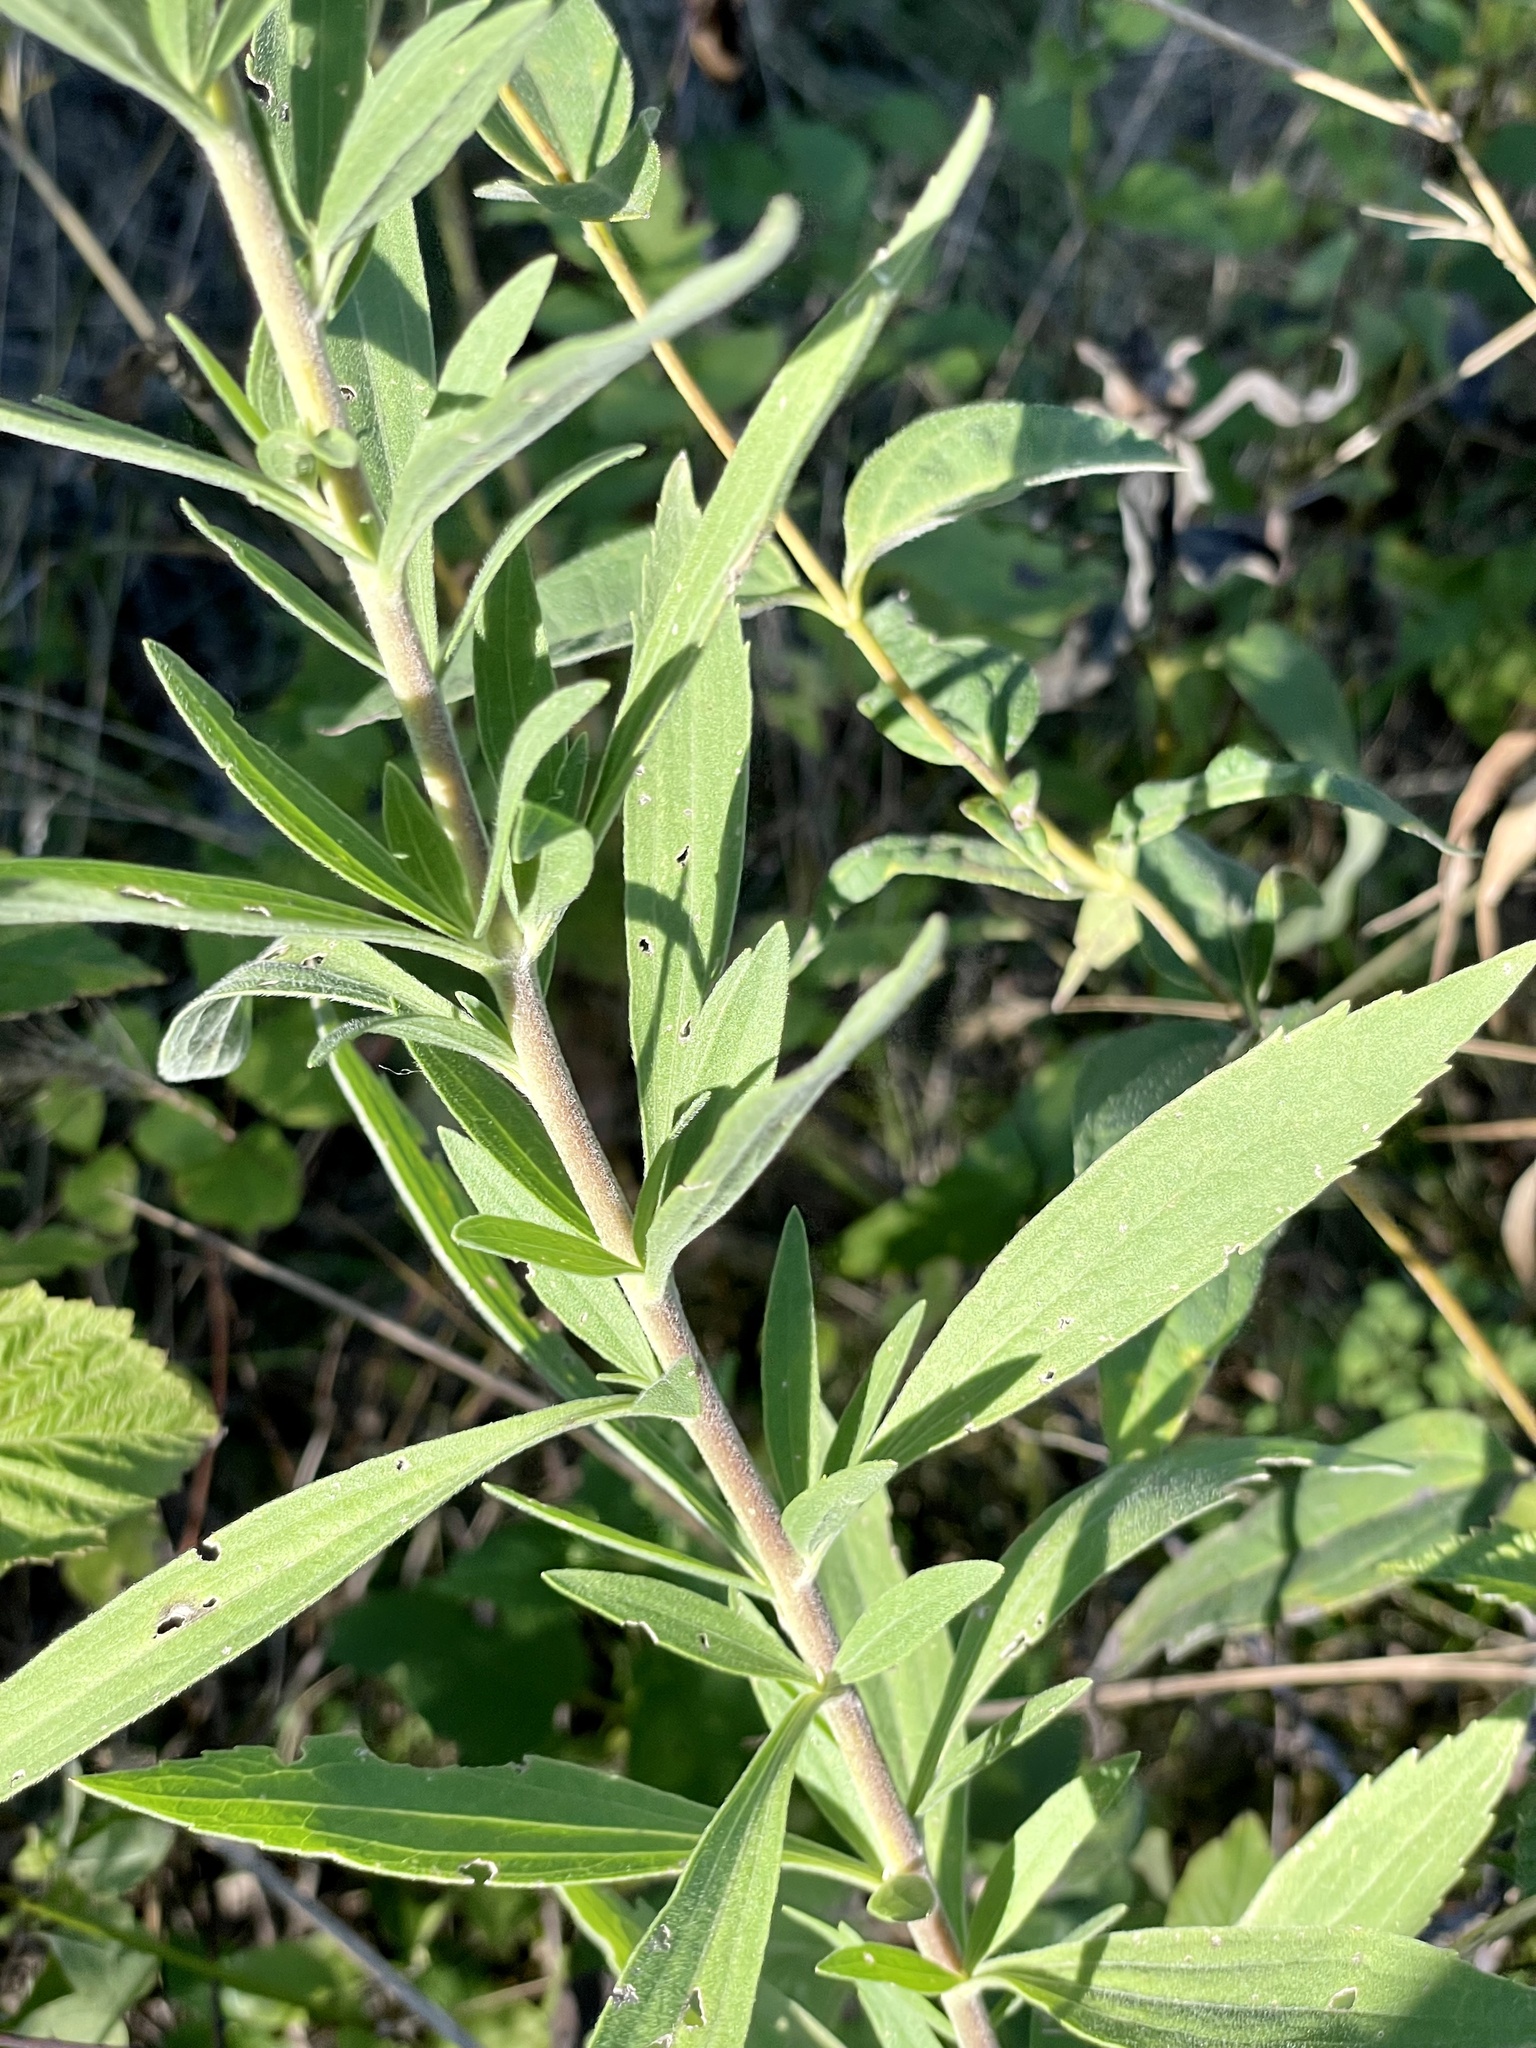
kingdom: Plantae
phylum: Tracheophyta
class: Magnoliopsida
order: Asterales
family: Asteraceae
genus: Eupatorium
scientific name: Eupatorium altissimum
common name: Tall thoroughwort
